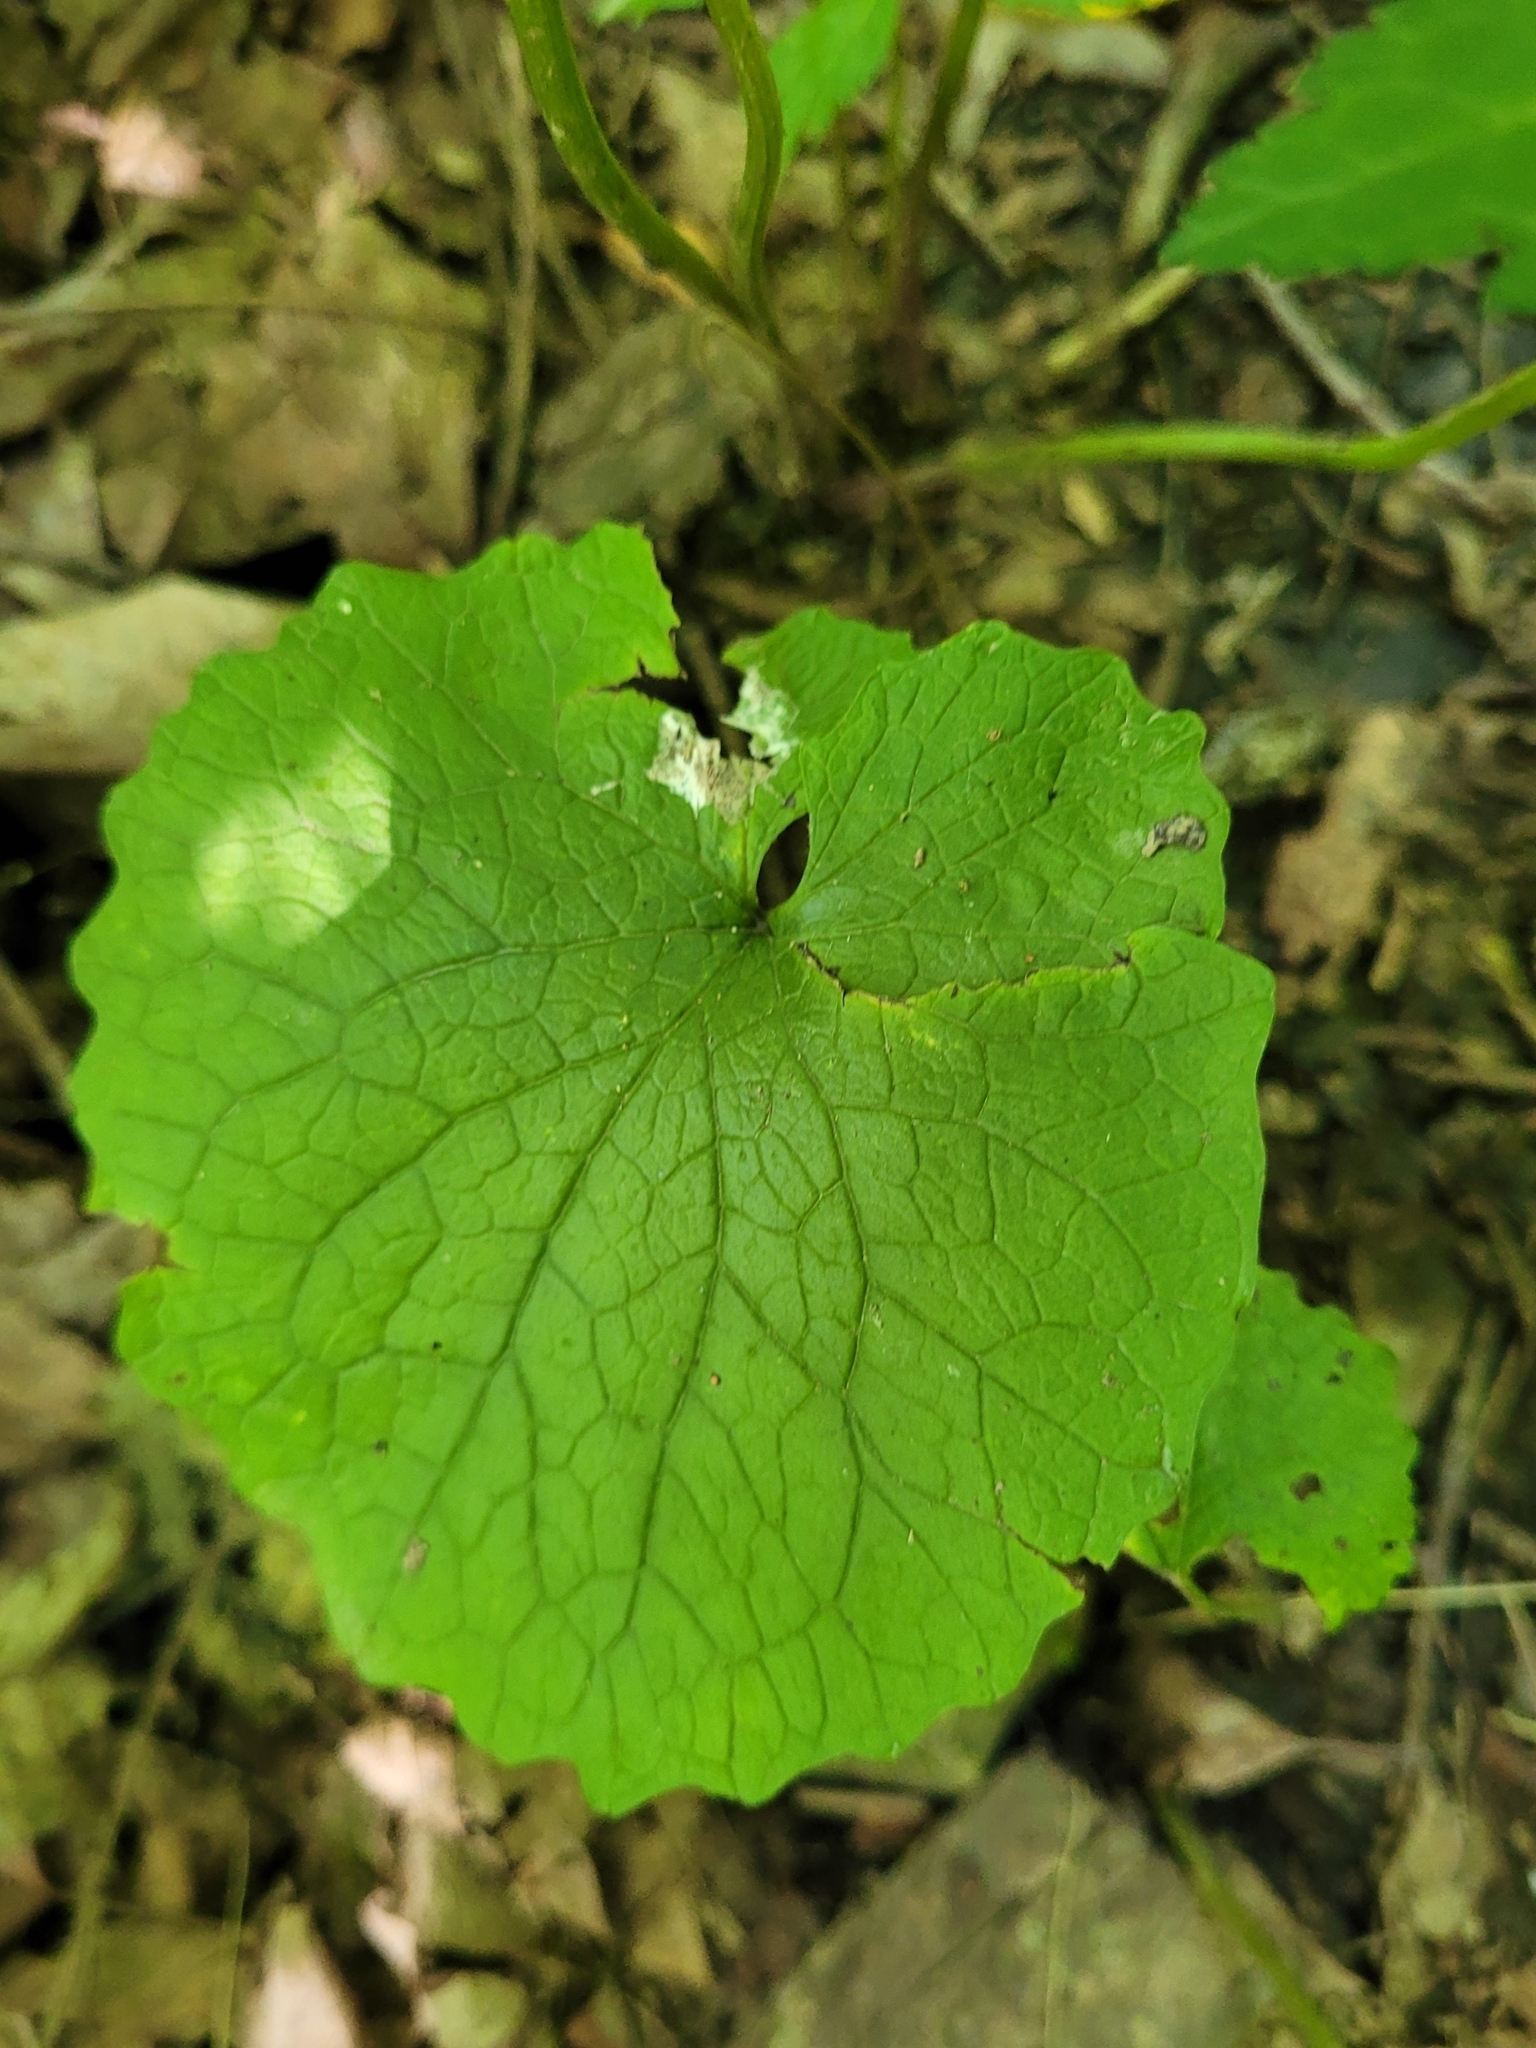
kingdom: Plantae
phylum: Tracheophyta
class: Magnoliopsida
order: Brassicales
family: Brassicaceae
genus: Alliaria
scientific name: Alliaria petiolata
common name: Garlic mustard
